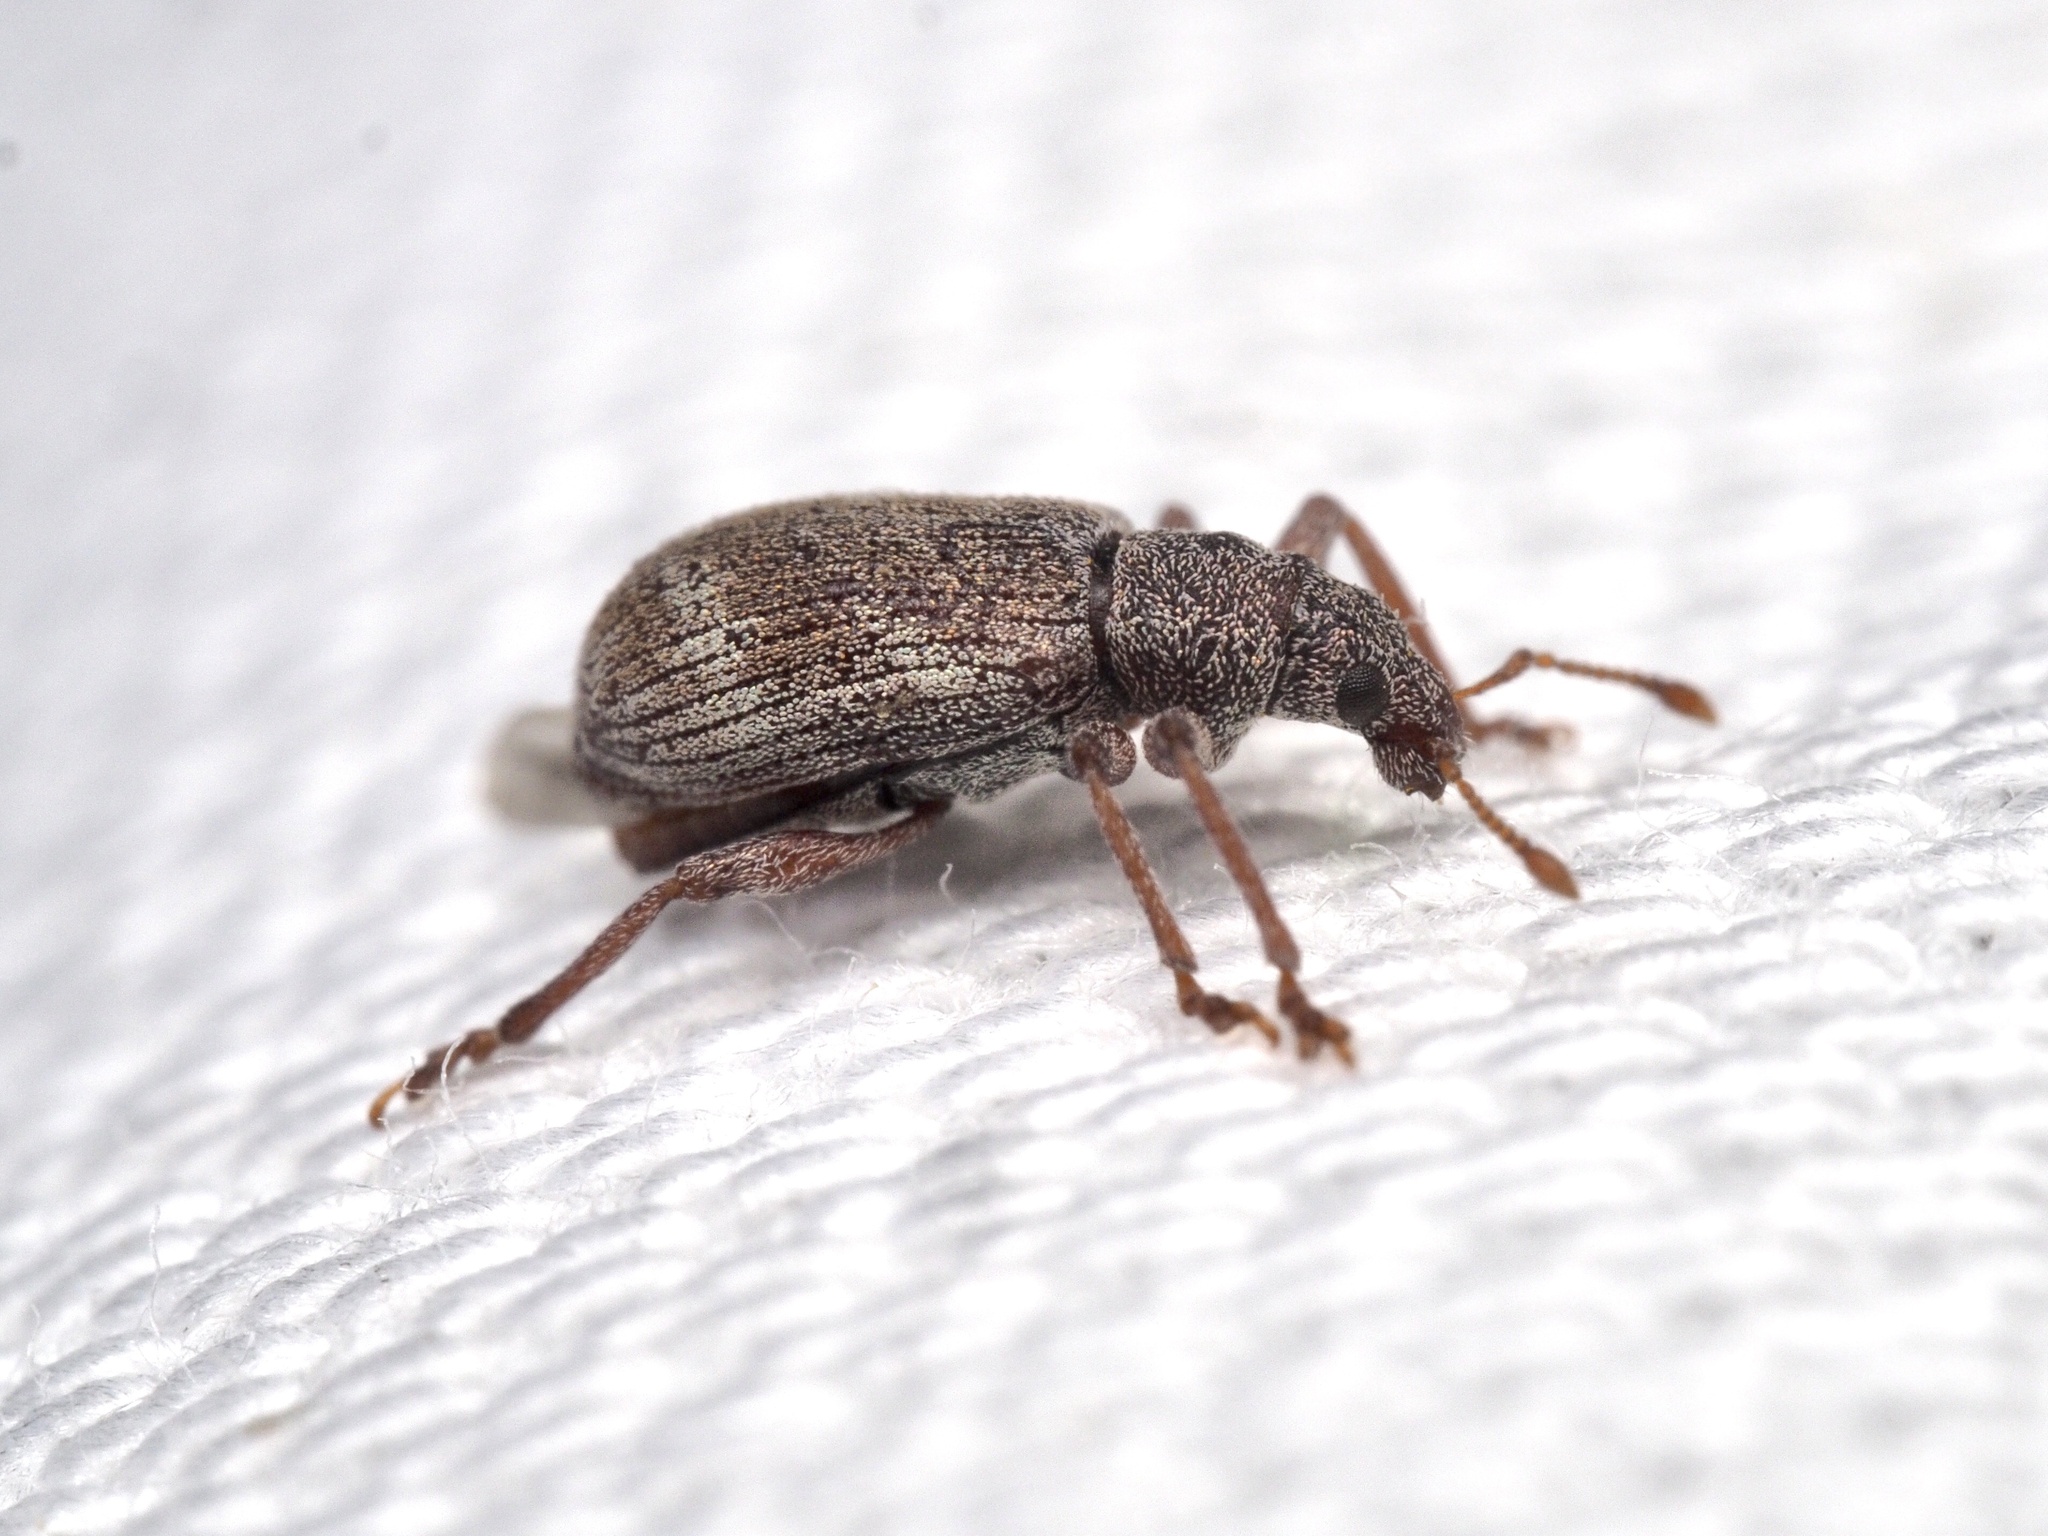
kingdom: Animalia
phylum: Arthropoda
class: Insecta
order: Coleoptera
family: Curculionidae
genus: Polydrusus
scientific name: Polydrusus fulvicornis
